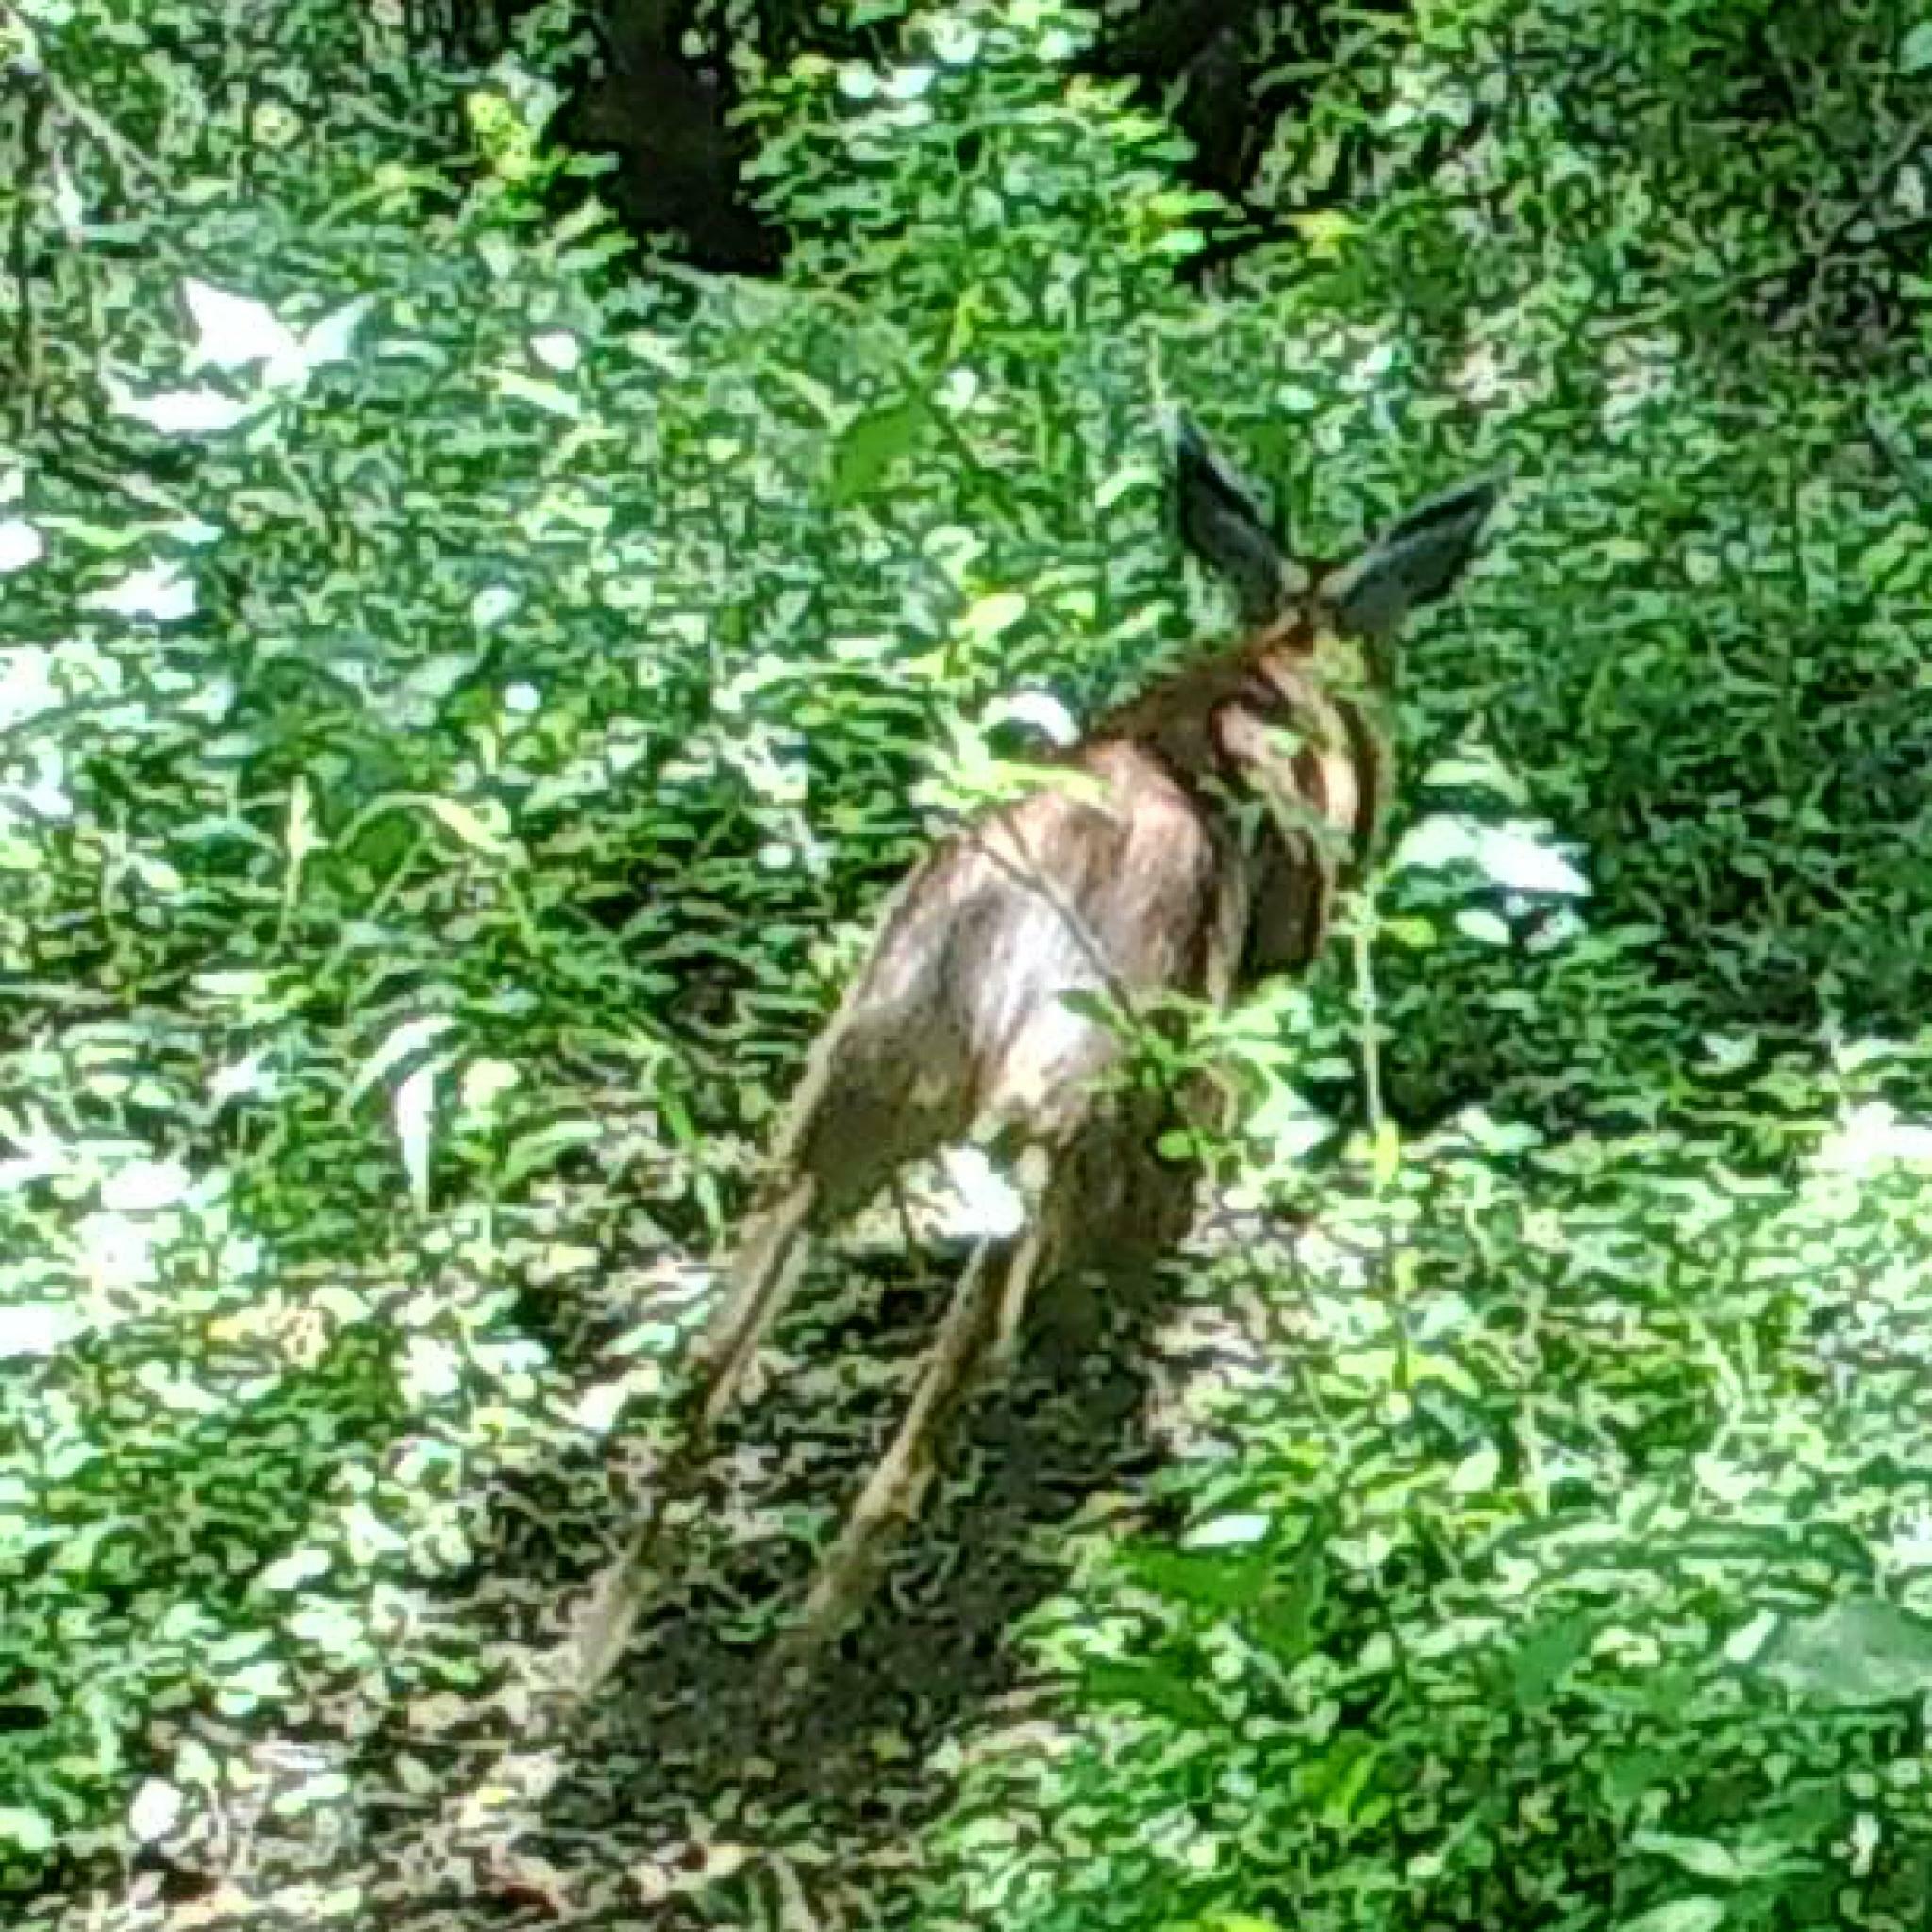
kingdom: Animalia
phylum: Chordata
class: Mammalia
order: Artiodactyla
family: Bovidae
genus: Raphicerus
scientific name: Raphicerus melanotis
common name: Cape grysbok
